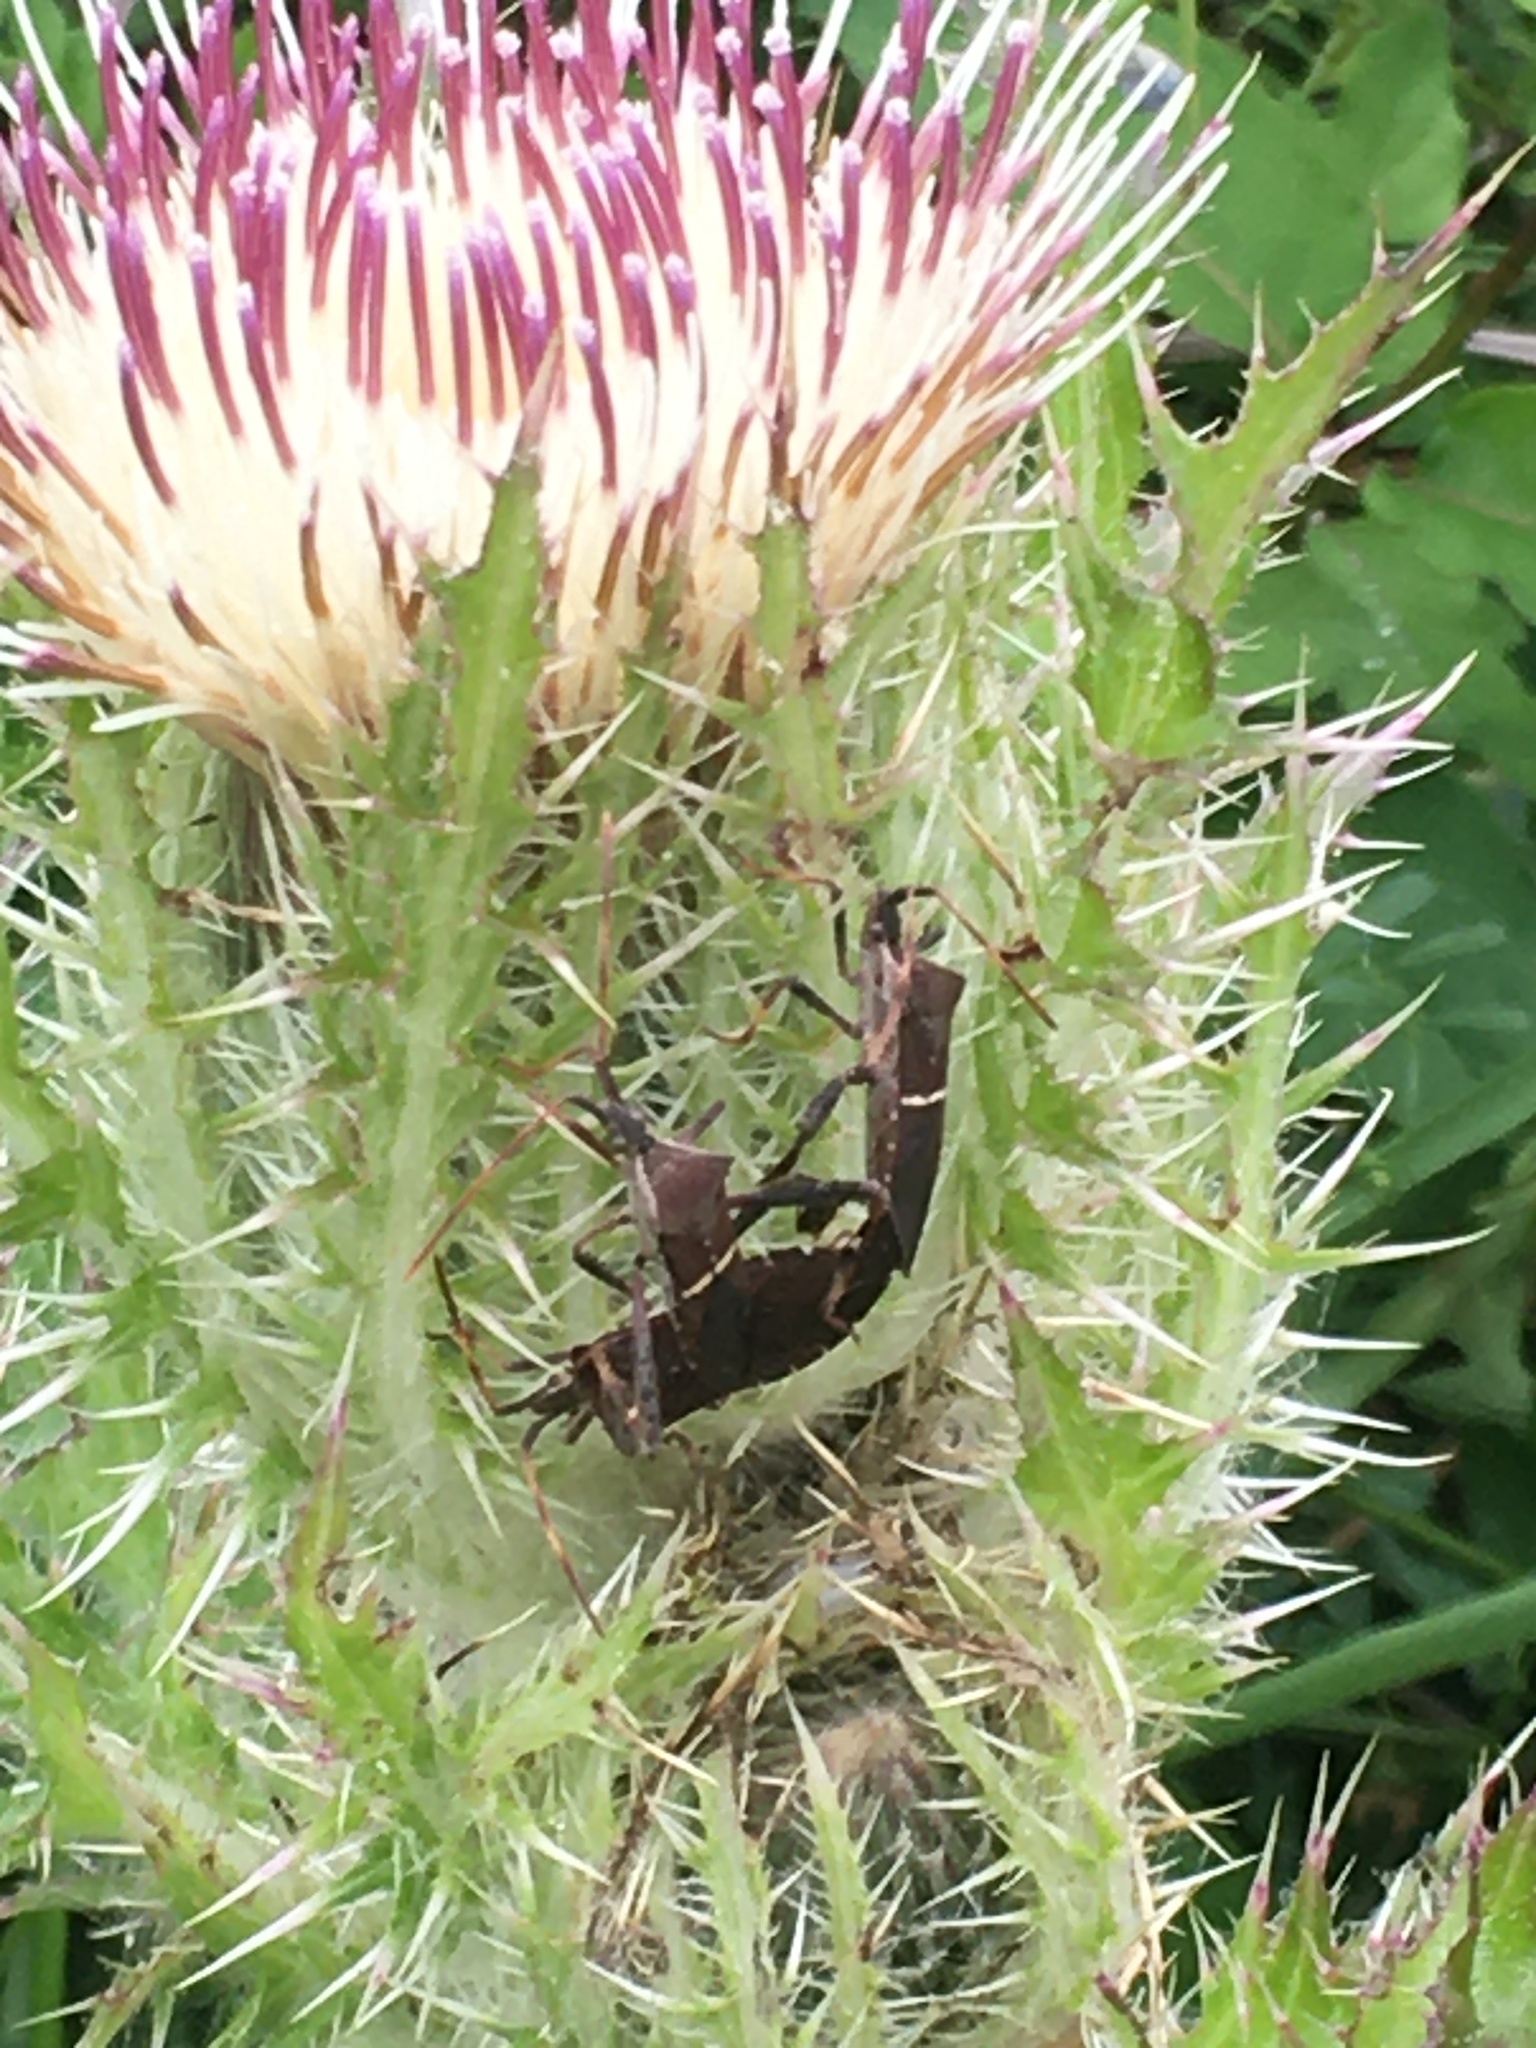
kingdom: Animalia
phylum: Arthropoda
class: Insecta
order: Hemiptera
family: Coreidae
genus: Leptoglossus
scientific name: Leptoglossus phyllopus
